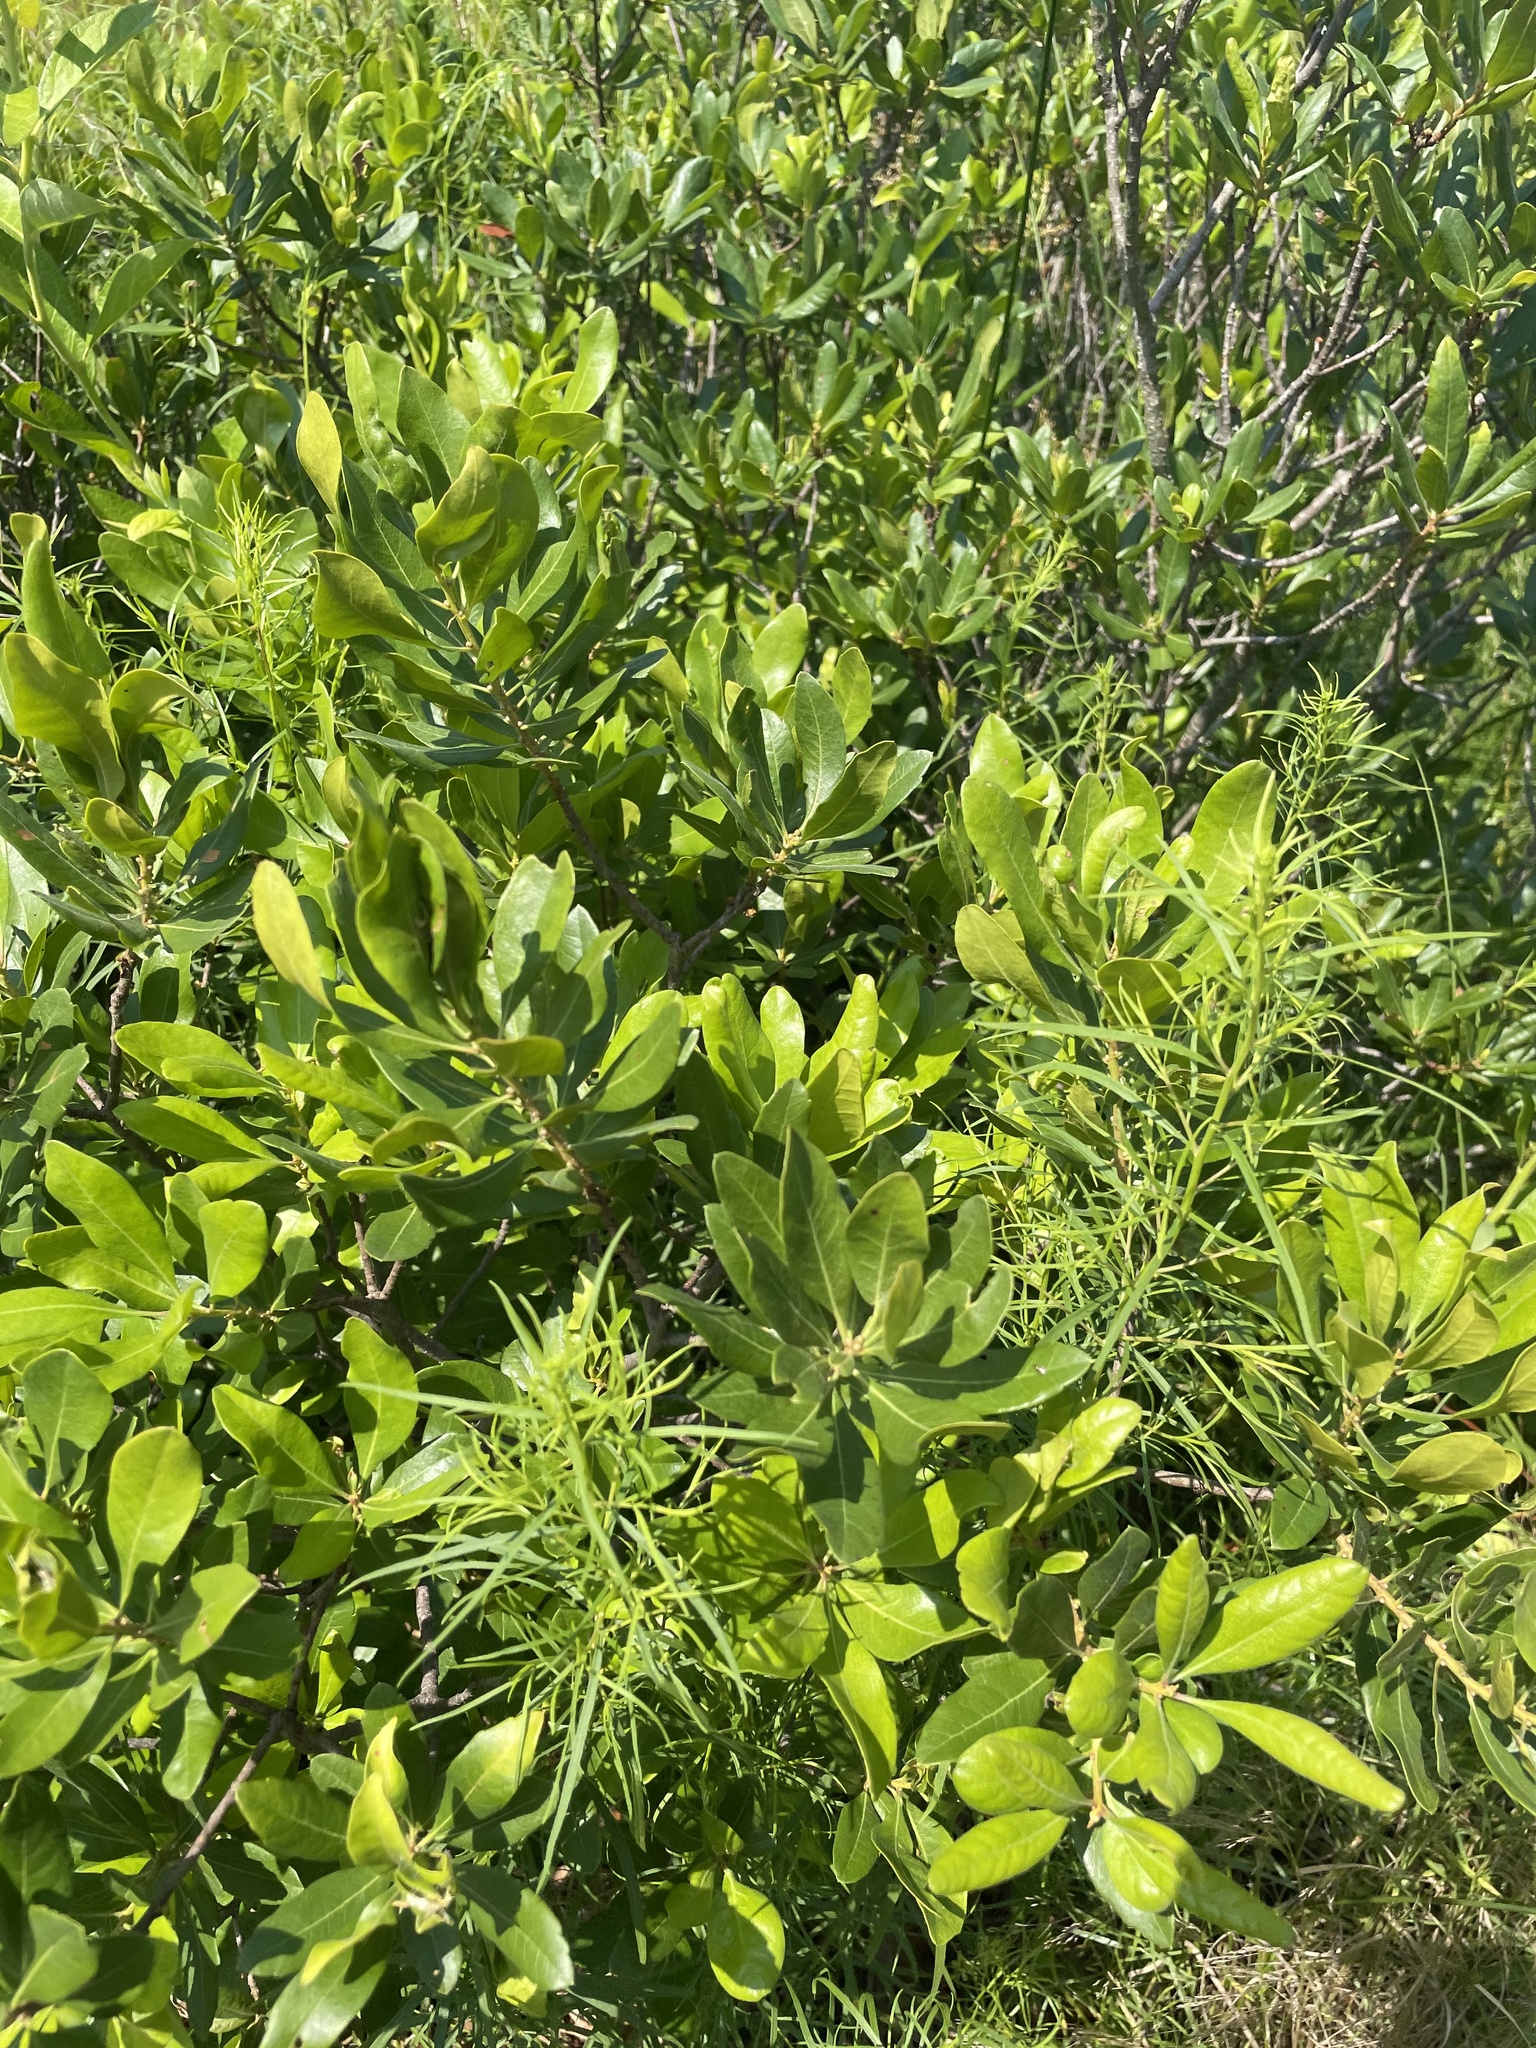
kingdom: Plantae
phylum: Tracheophyta
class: Magnoliopsida
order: Fagales
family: Myricaceae
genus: Morella
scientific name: Morella pensylvanica
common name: Northern bayberry
